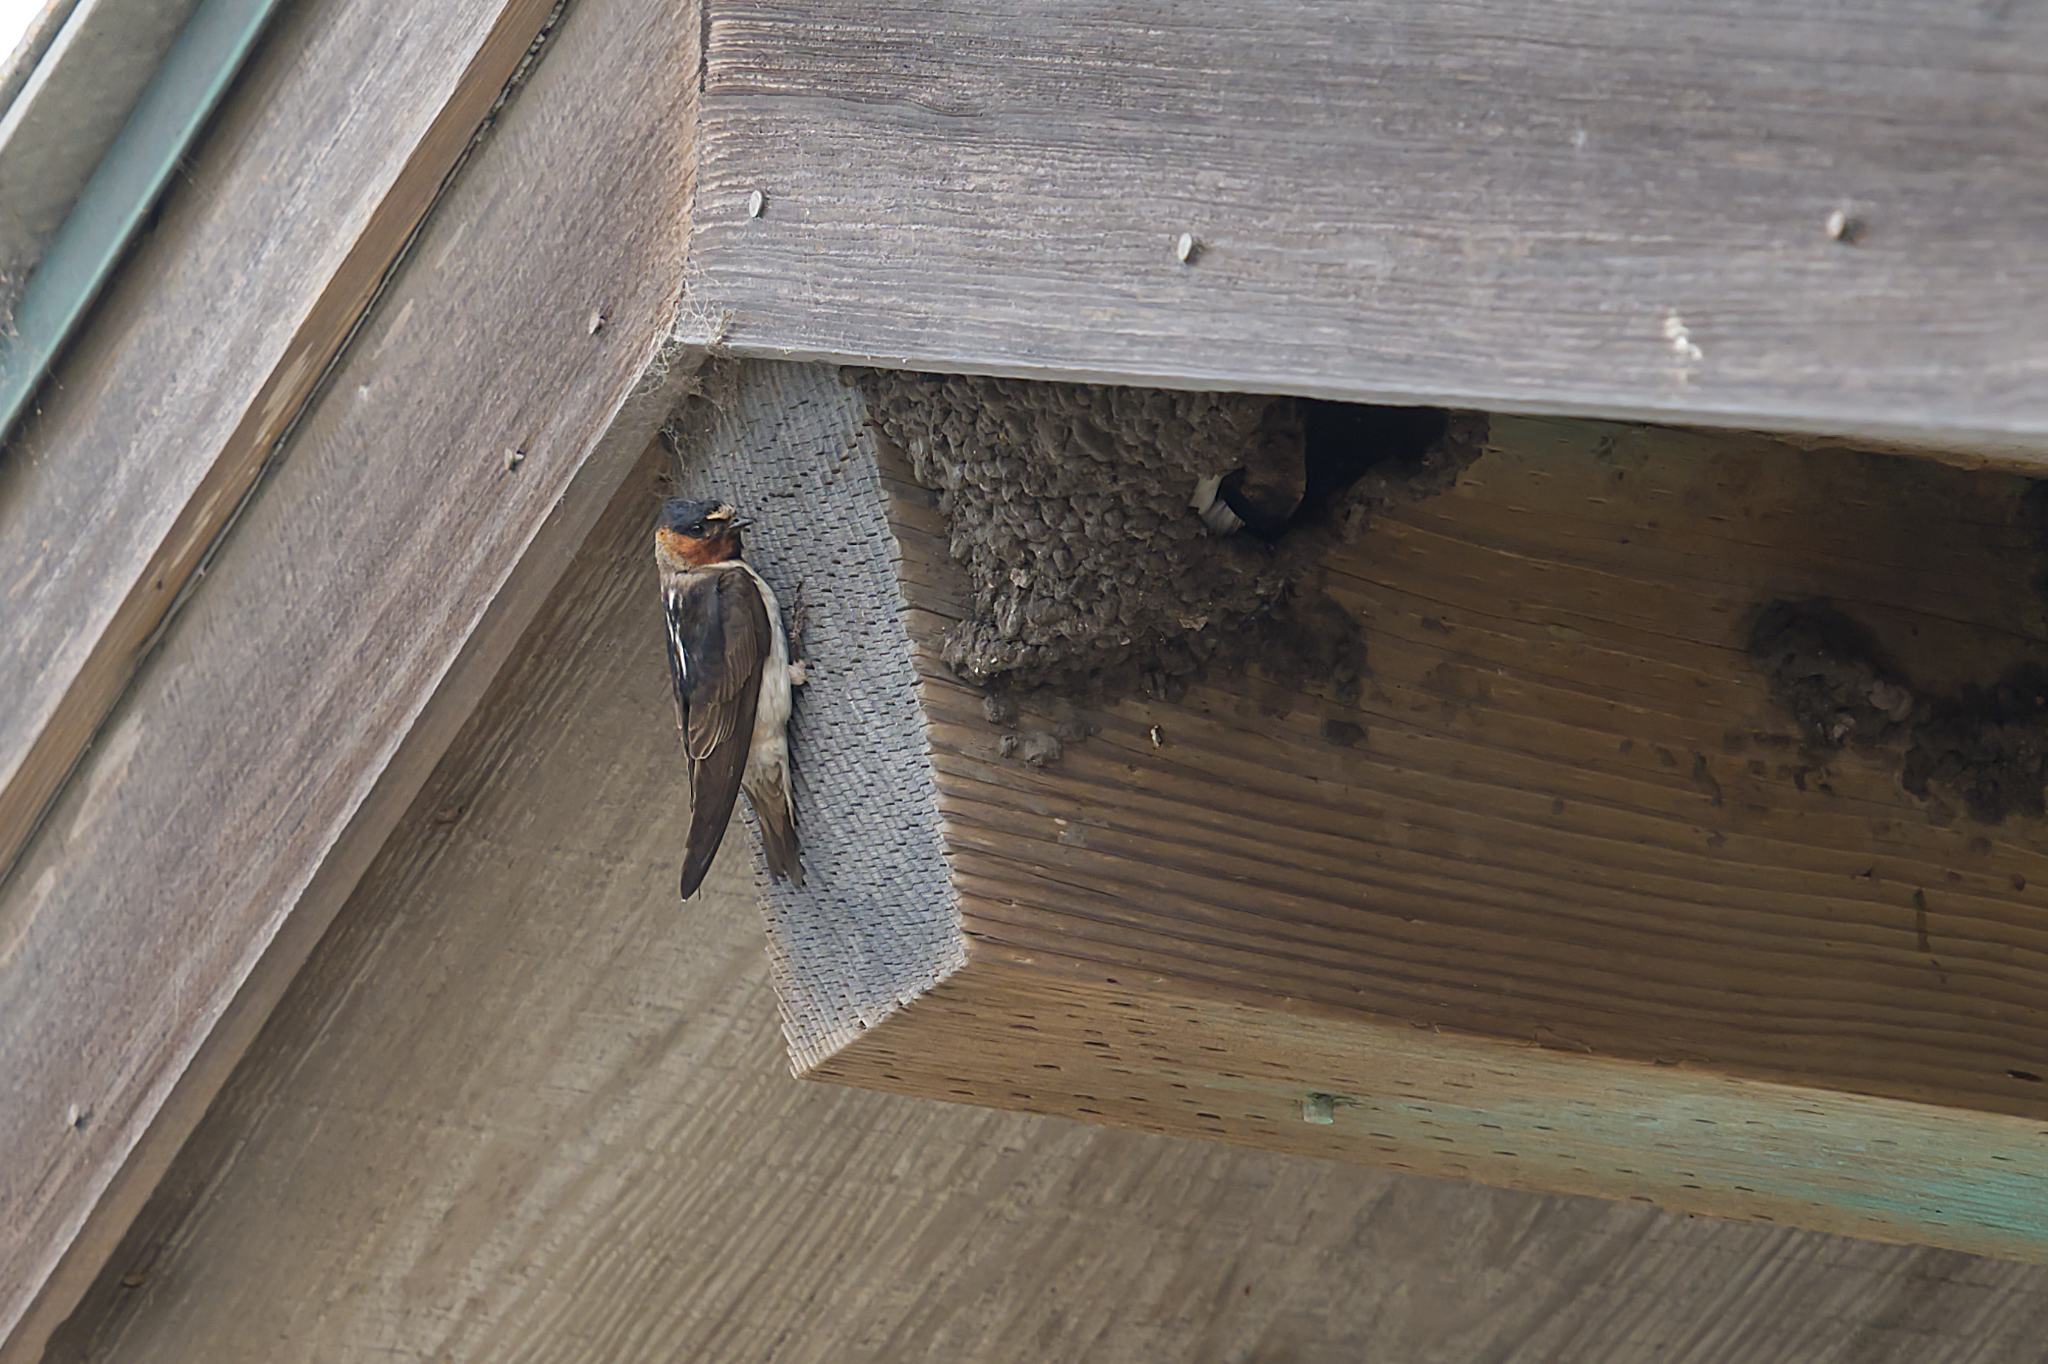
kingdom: Animalia
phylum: Chordata
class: Aves
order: Passeriformes
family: Hirundinidae
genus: Petrochelidon
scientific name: Petrochelidon pyrrhonota
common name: American cliff swallow
